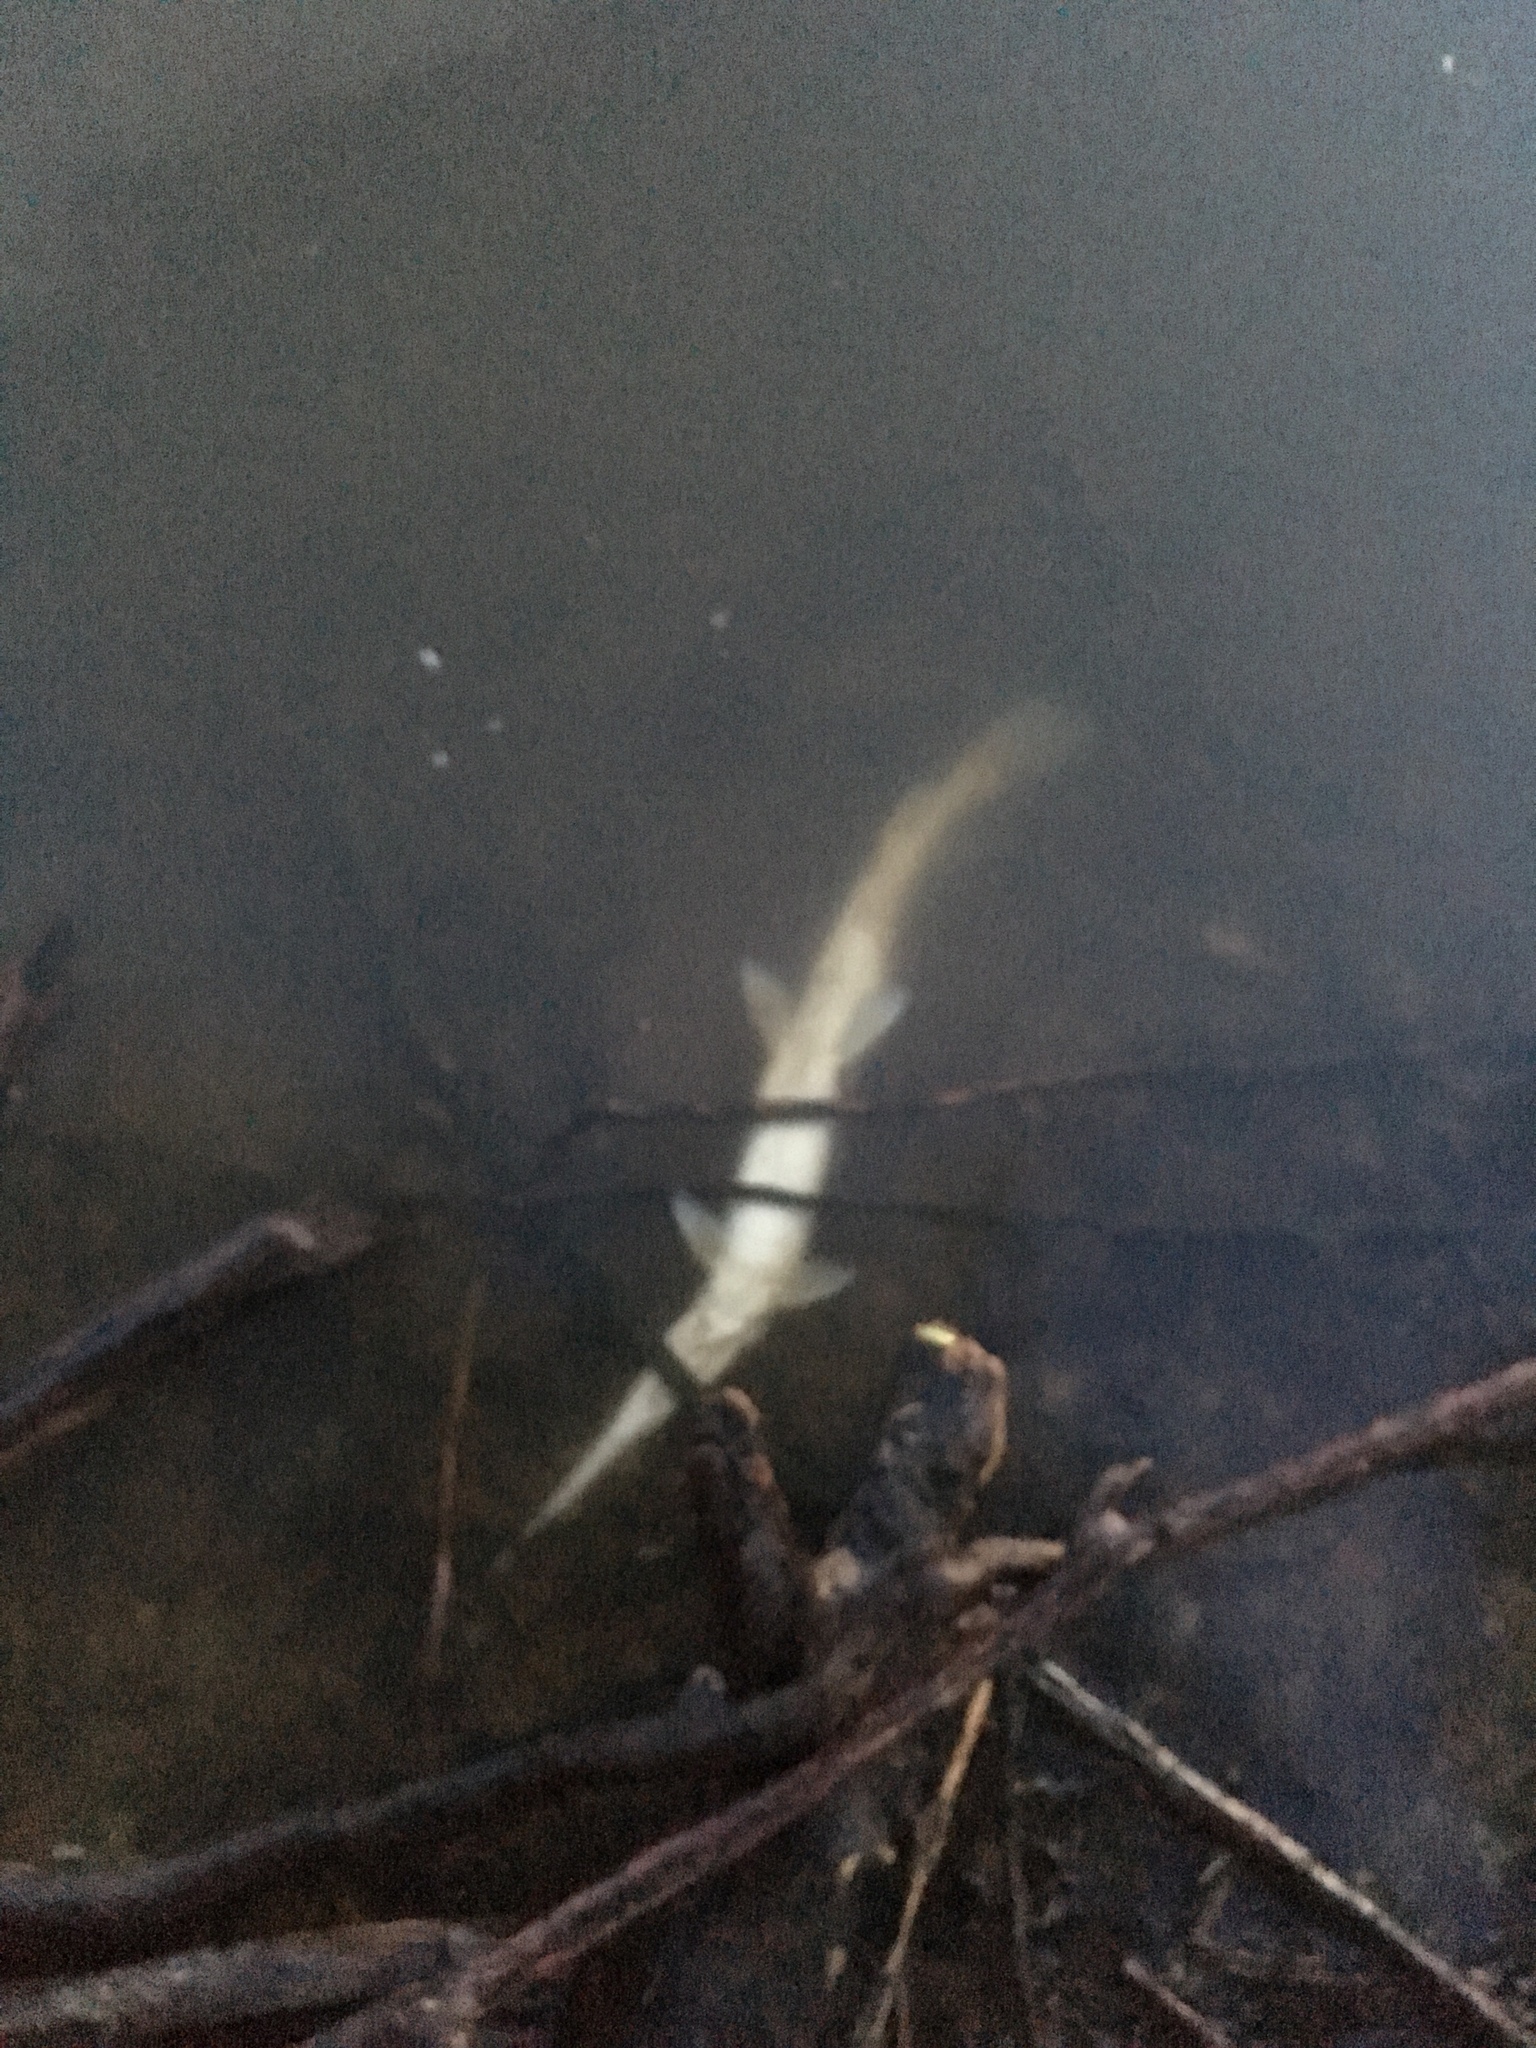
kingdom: Animalia
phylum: Chordata
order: Lepisosteiformes
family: Lepisosteidae
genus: Lepisosteus
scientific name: Lepisosteus osseus
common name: Longnose gar
